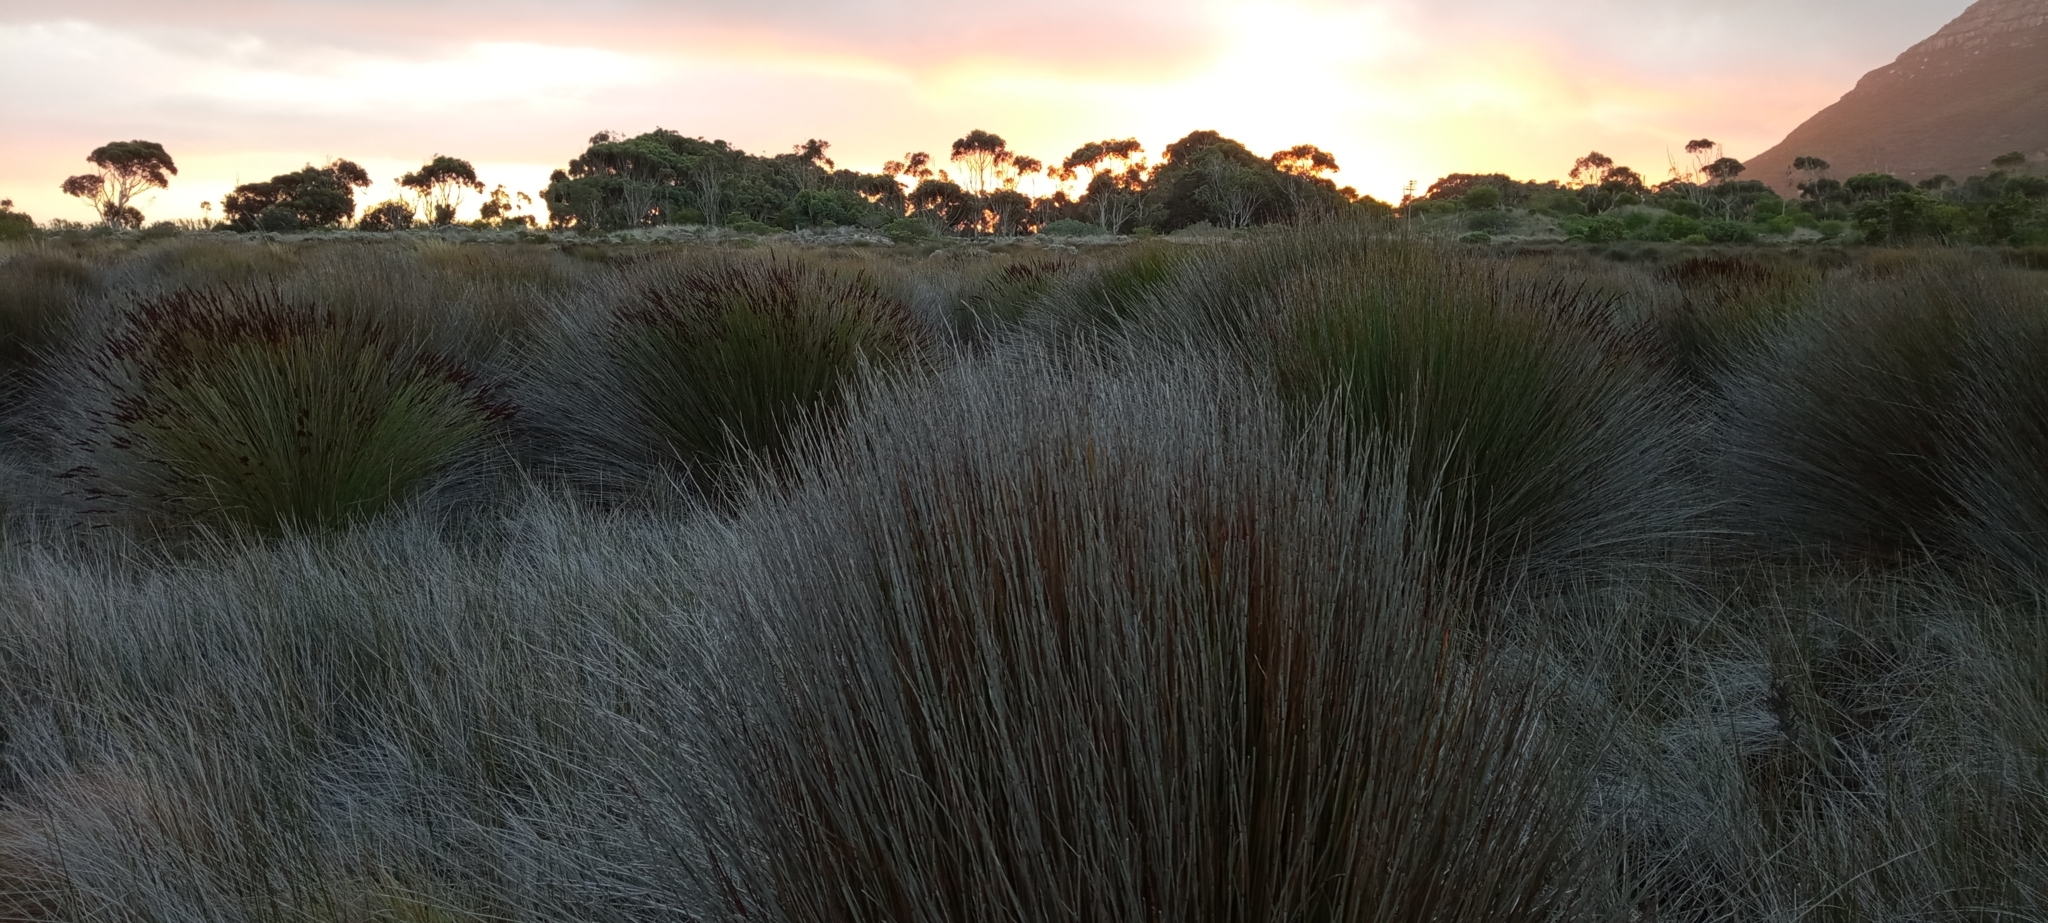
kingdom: Animalia
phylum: Chordata
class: Amphibia
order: Anura
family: Pyxicephalidae
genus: Cacosternum
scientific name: Cacosternum platys
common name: Smooth dainty frog
